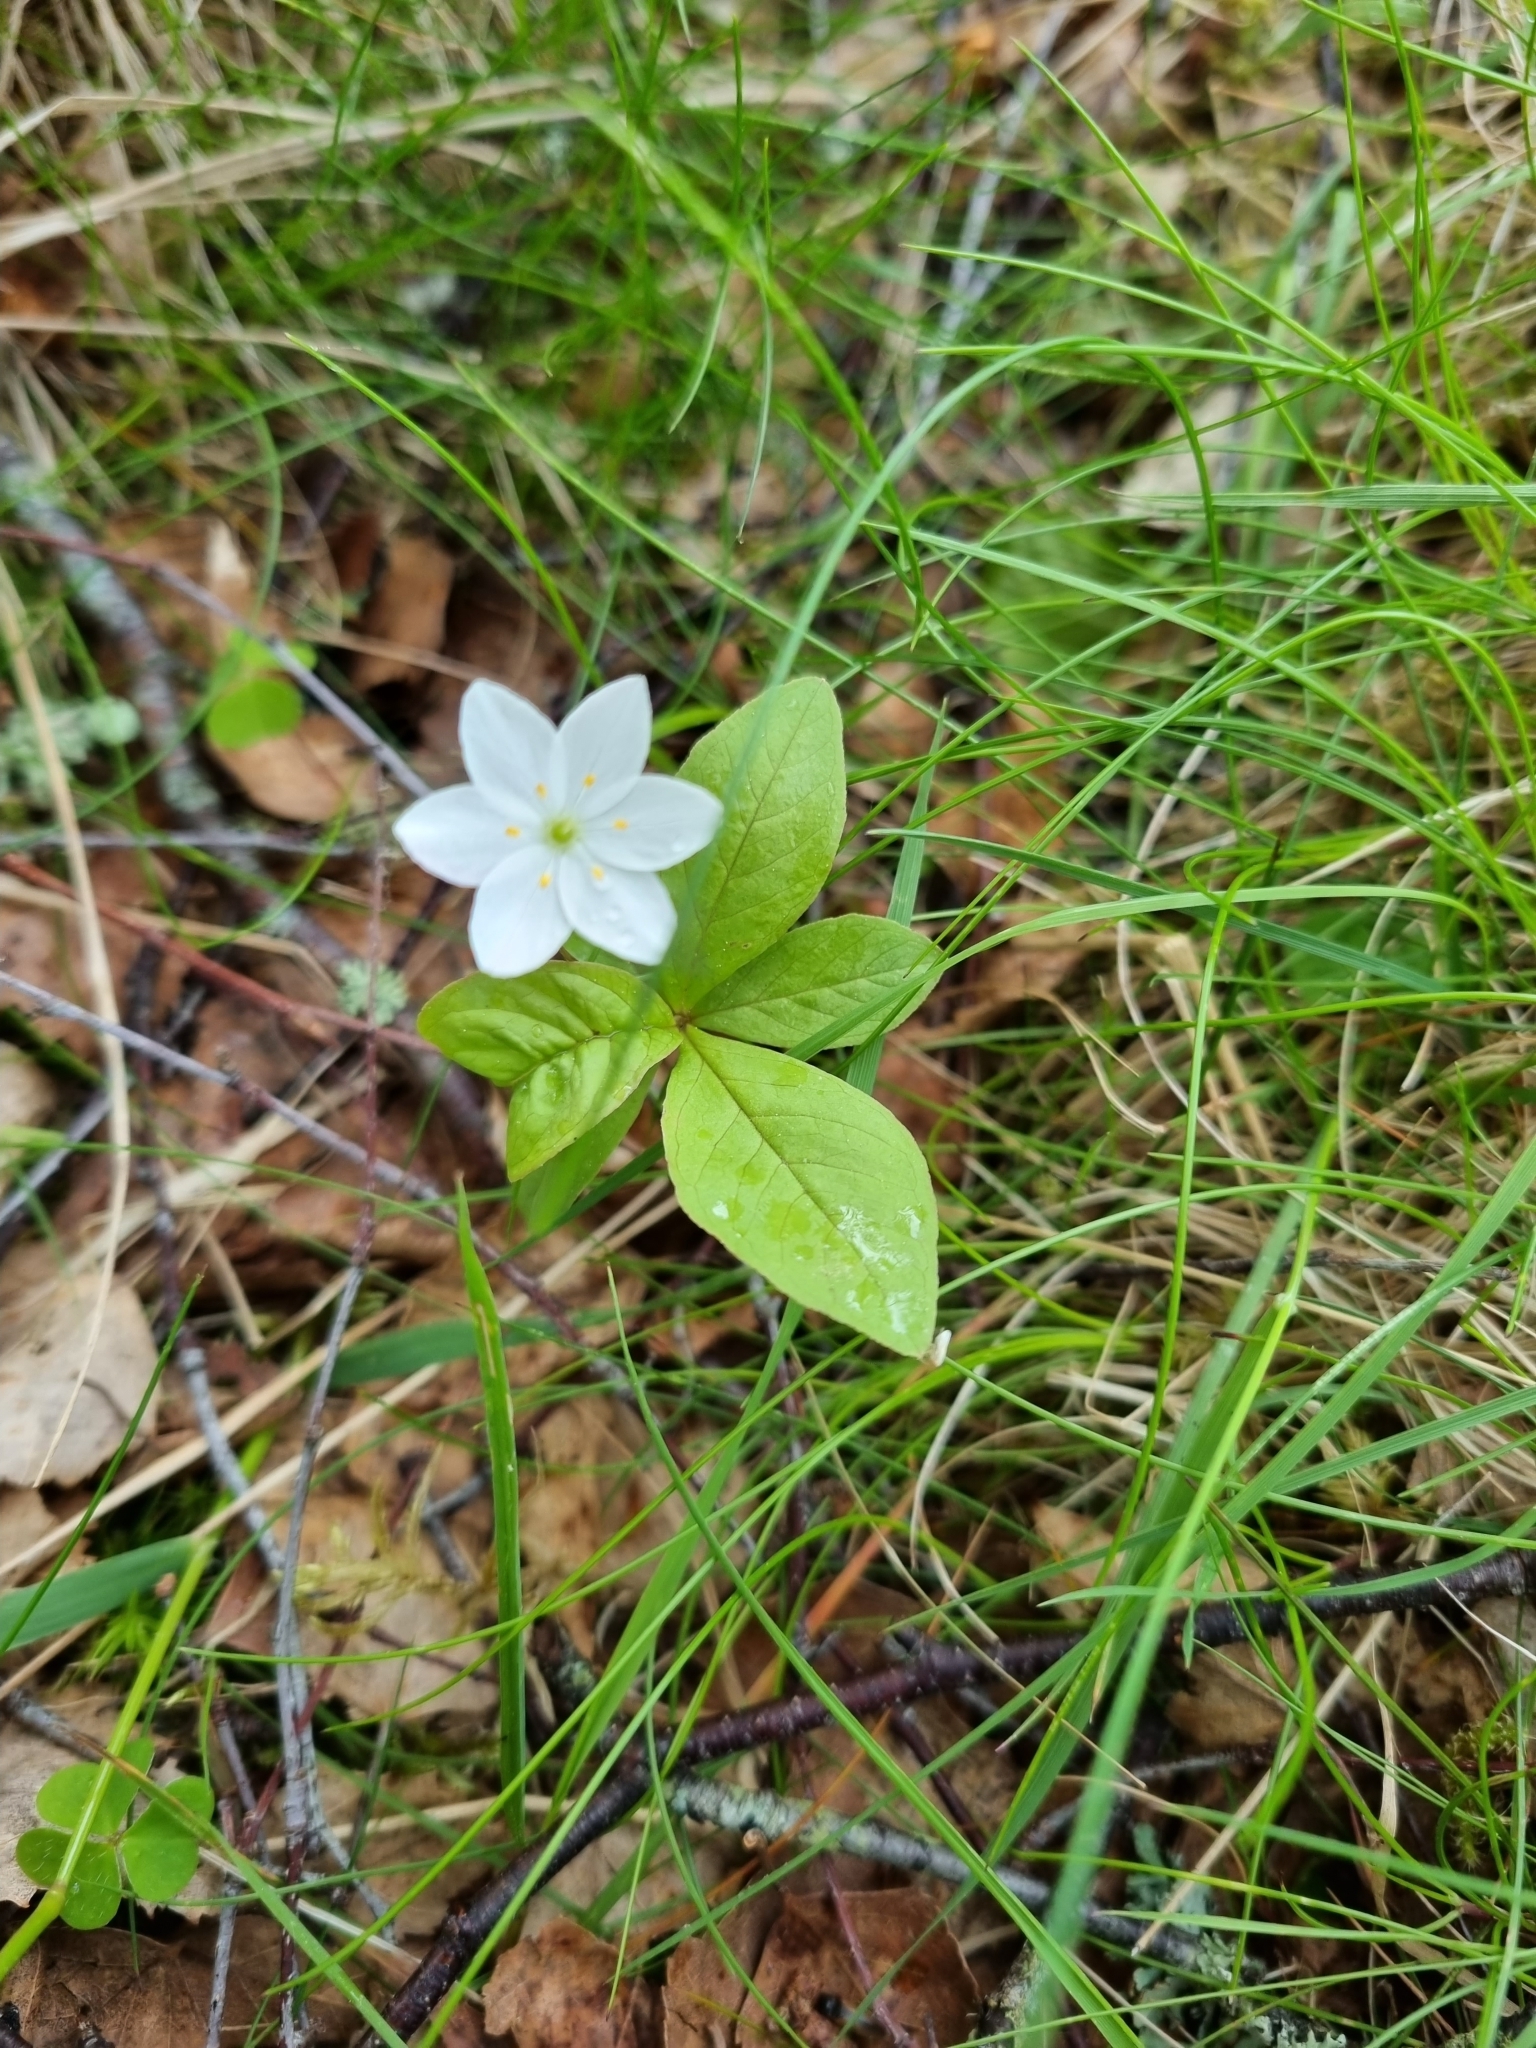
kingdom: Plantae
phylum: Tracheophyta
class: Magnoliopsida
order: Ericales
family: Primulaceae
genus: Lysimachia
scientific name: Lysimachia europaea
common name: Arctic starflower
